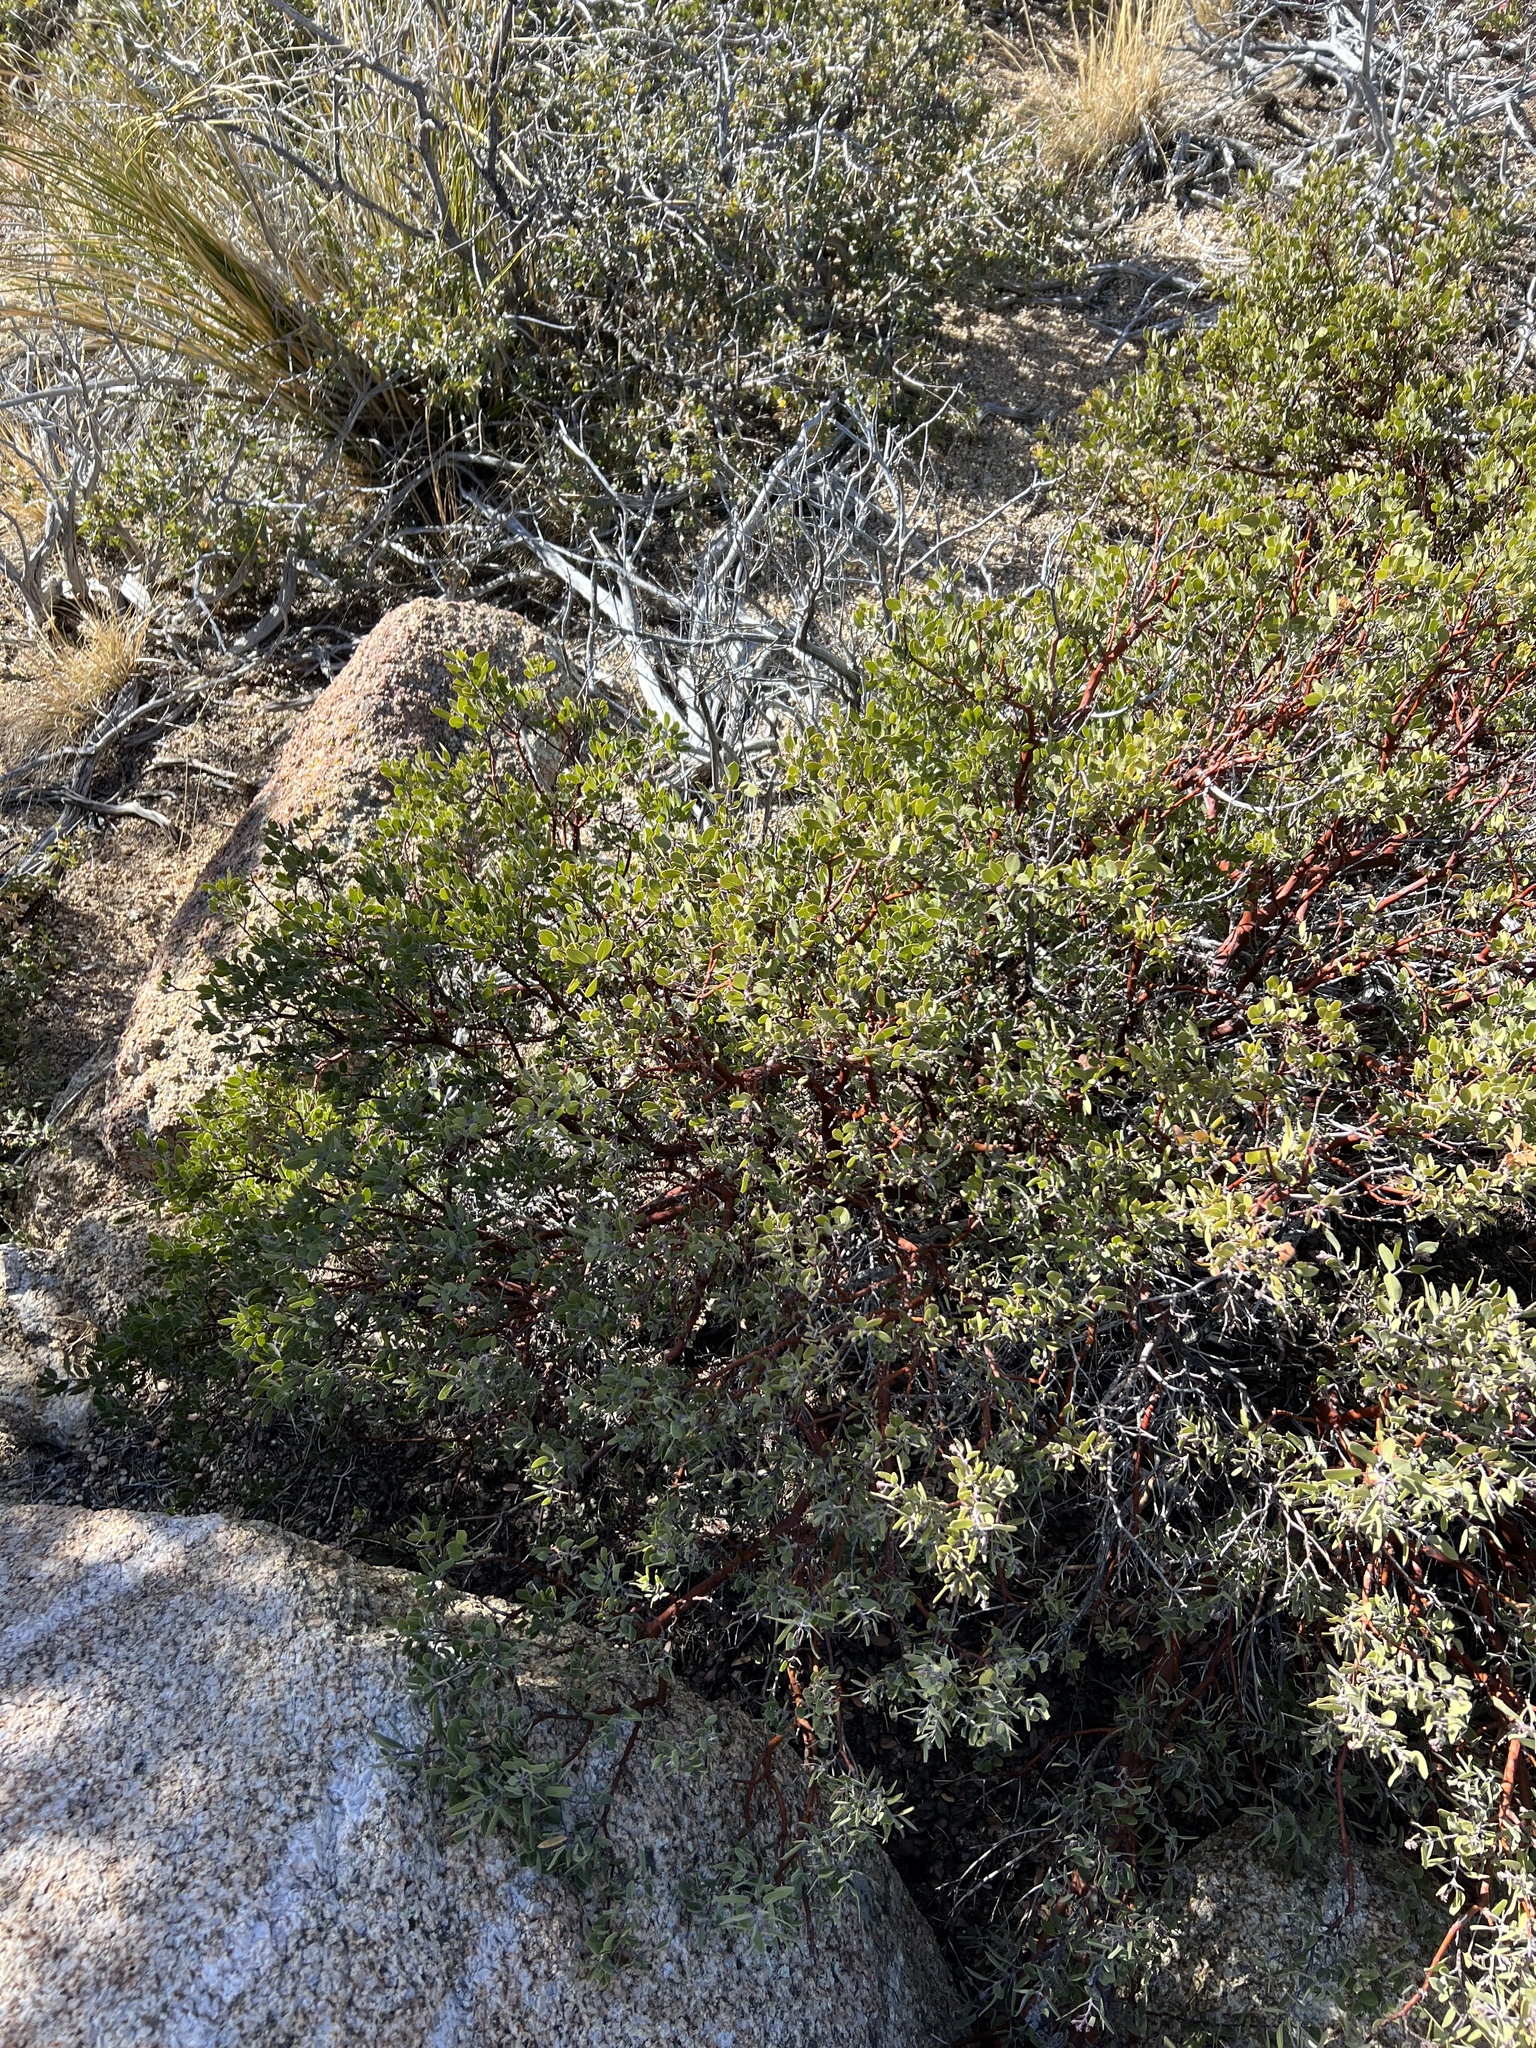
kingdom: Plantae
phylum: Tracheophyta
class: Magnoliopsida
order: Ericales
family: Ericaceae
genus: Arctostaphylos
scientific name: Arctostaphylos pungens
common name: Mexican manzanita
